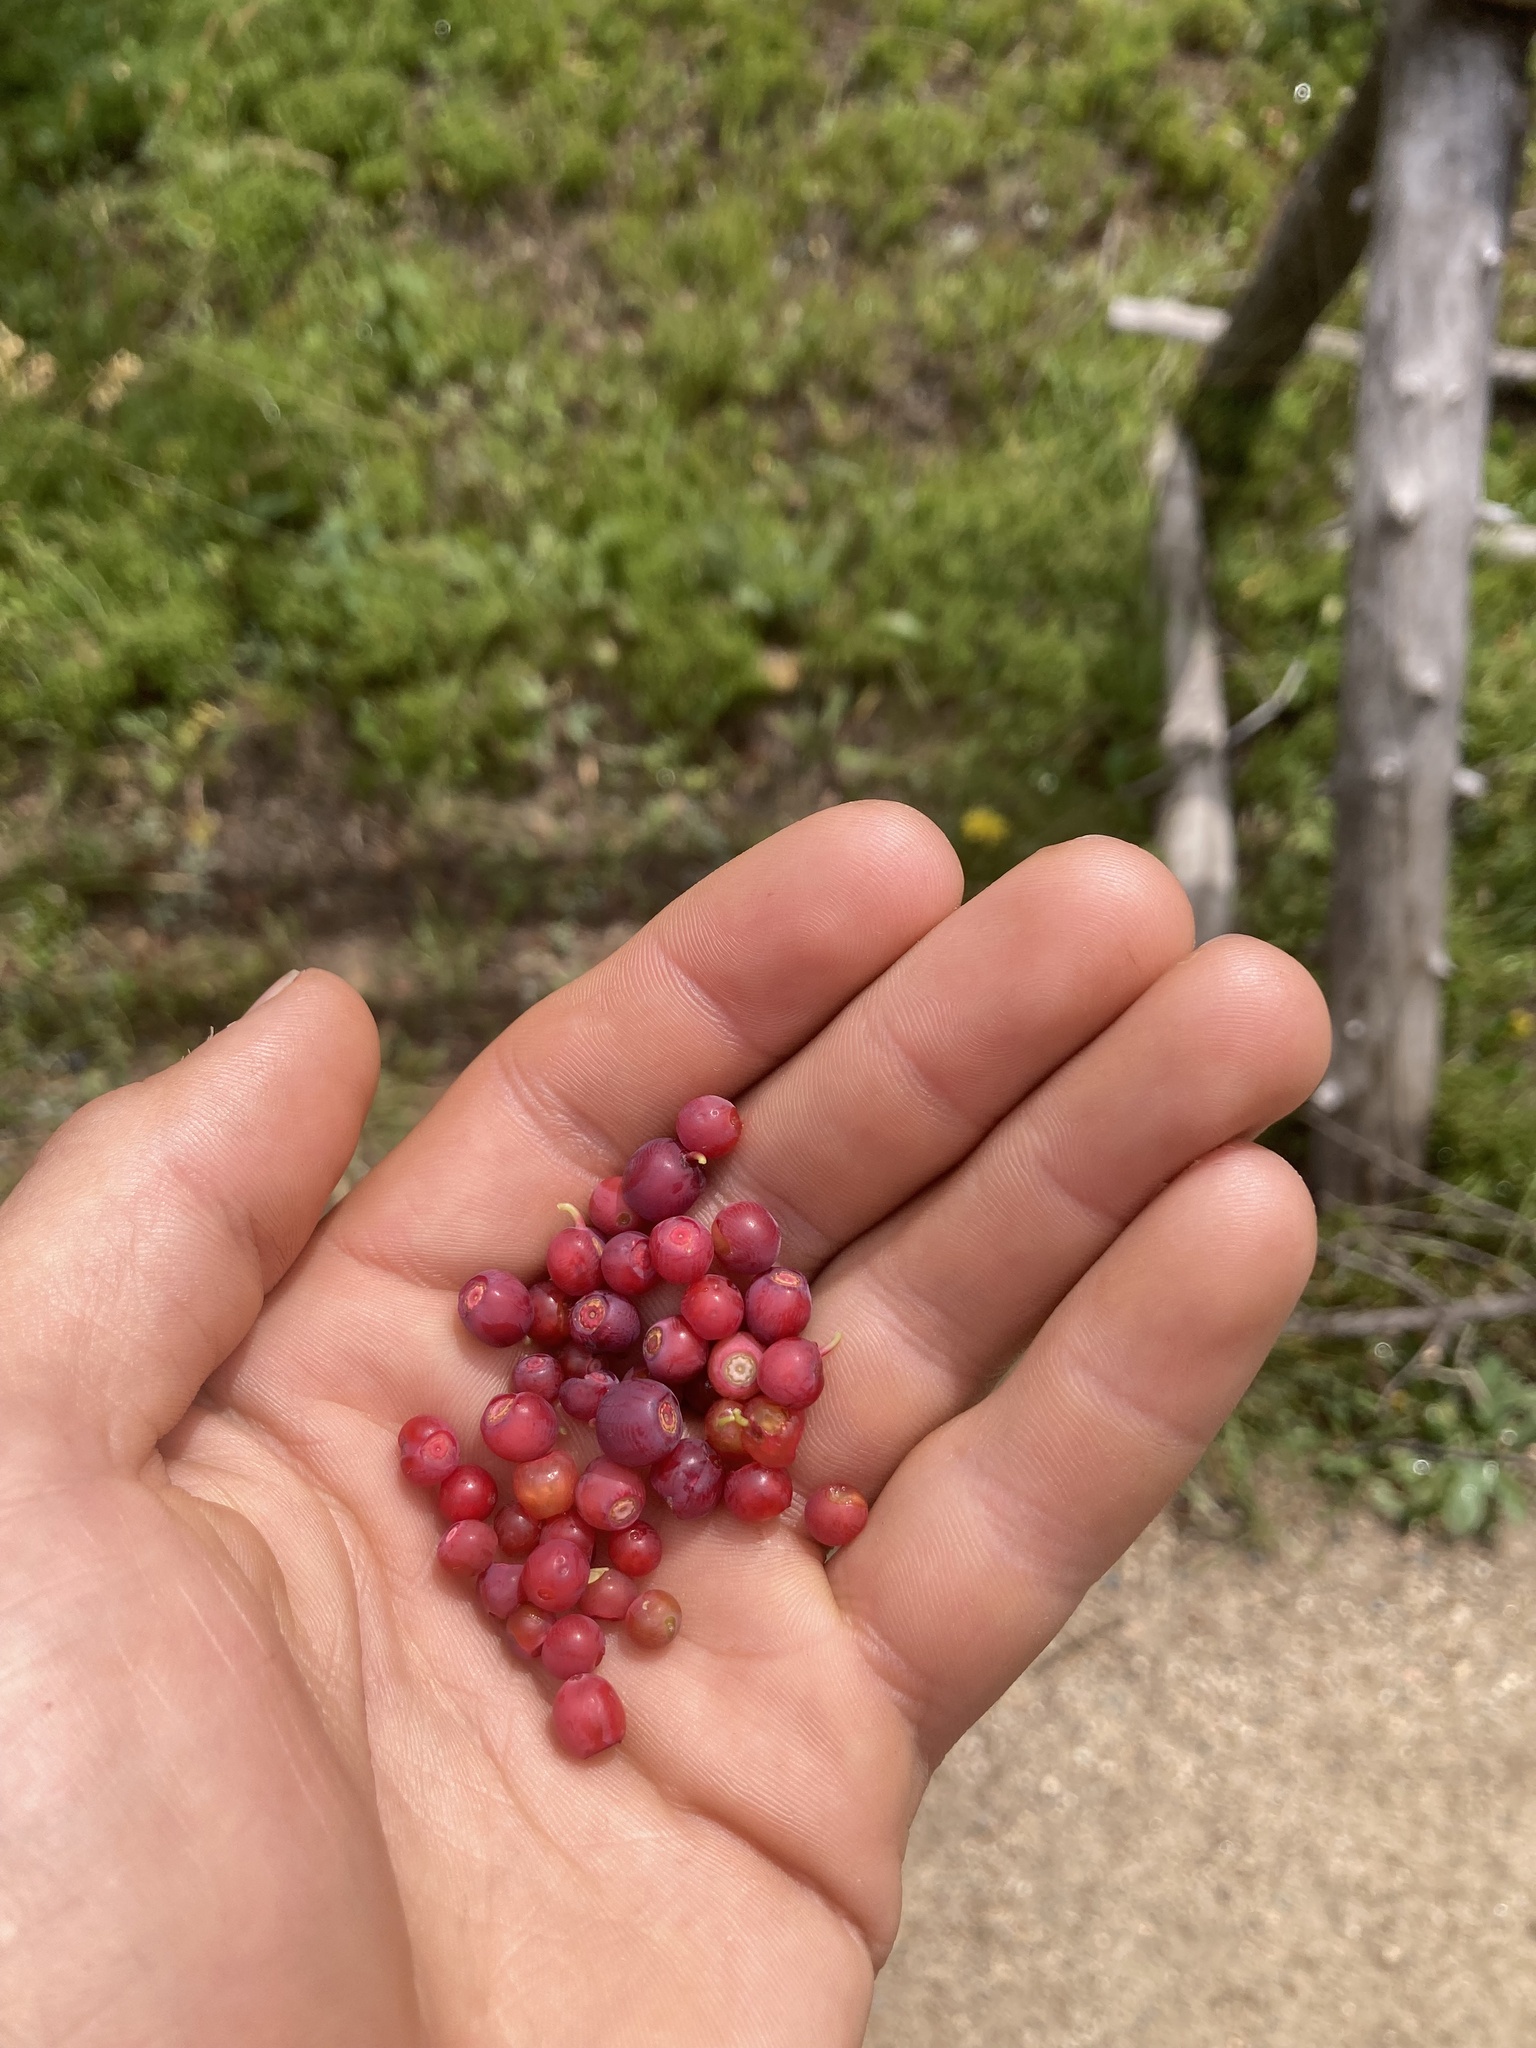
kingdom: Plantae
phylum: Tracheophyta
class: Magnoliopsida
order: Ericales
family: Ericaceae
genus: Vaccinium
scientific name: Vaccinium scoparium
